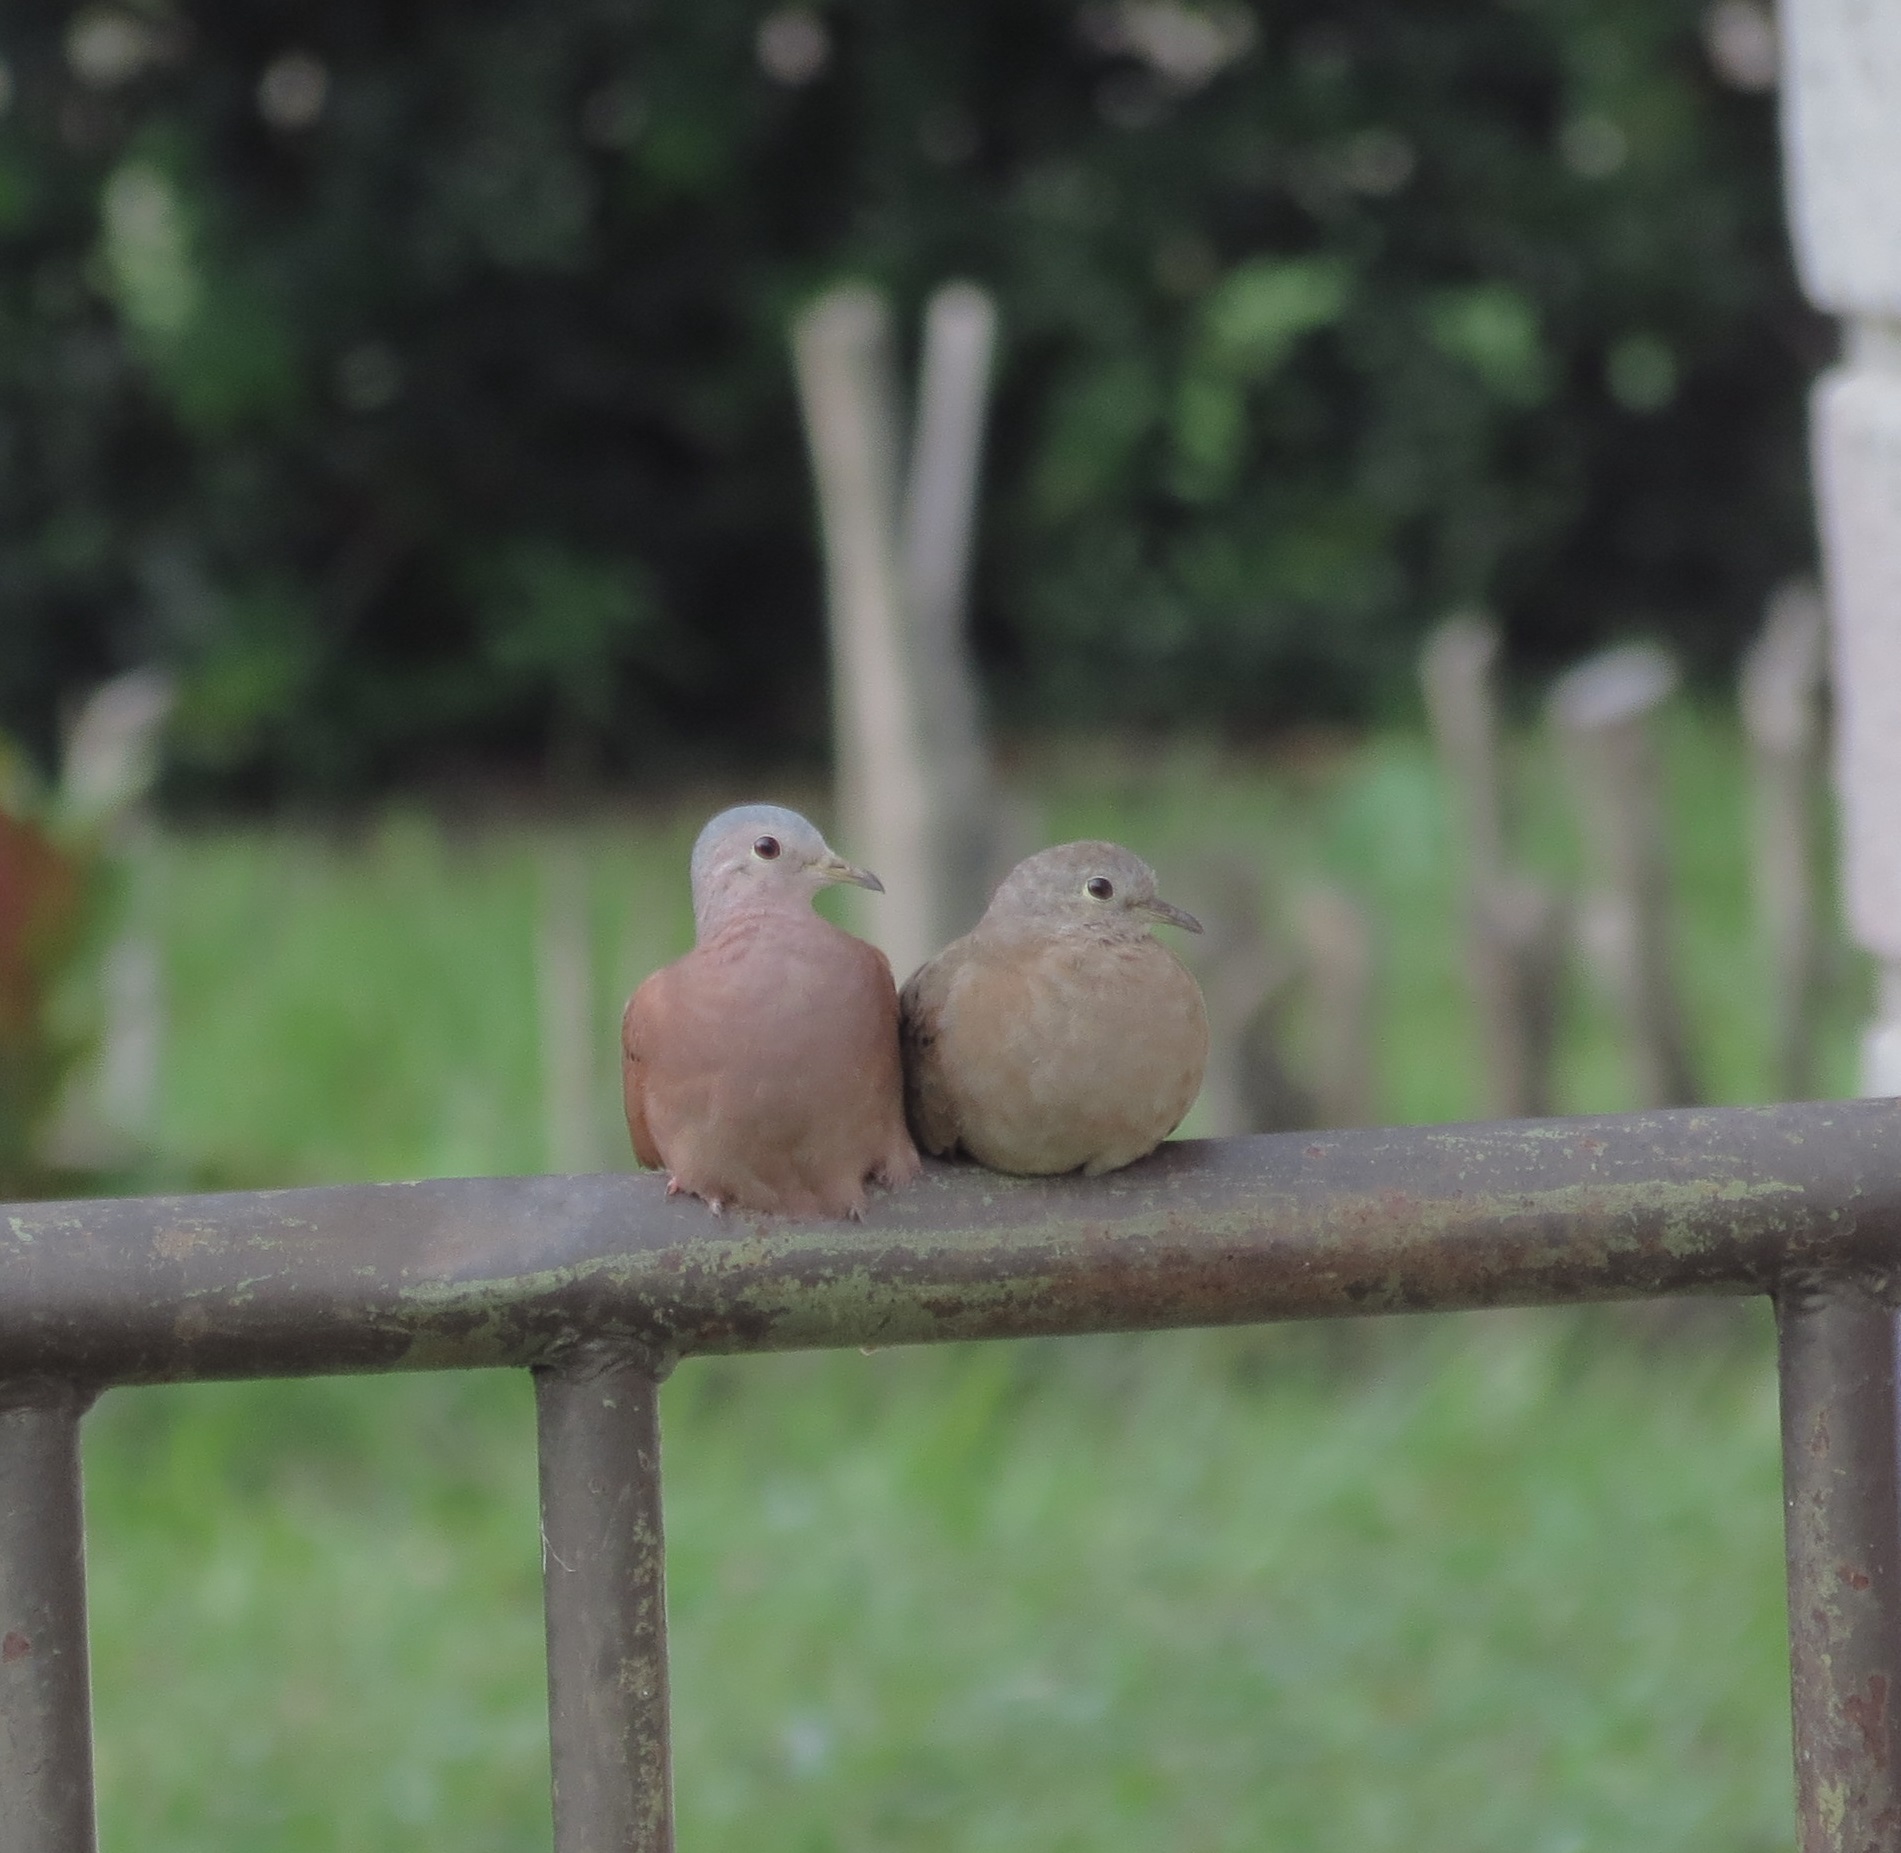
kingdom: Animalia
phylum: Chordata
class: Aves
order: Columbiformes
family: Columbidae
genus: Columbina
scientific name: Columbina talpacoti
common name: Ruddy ground dove
